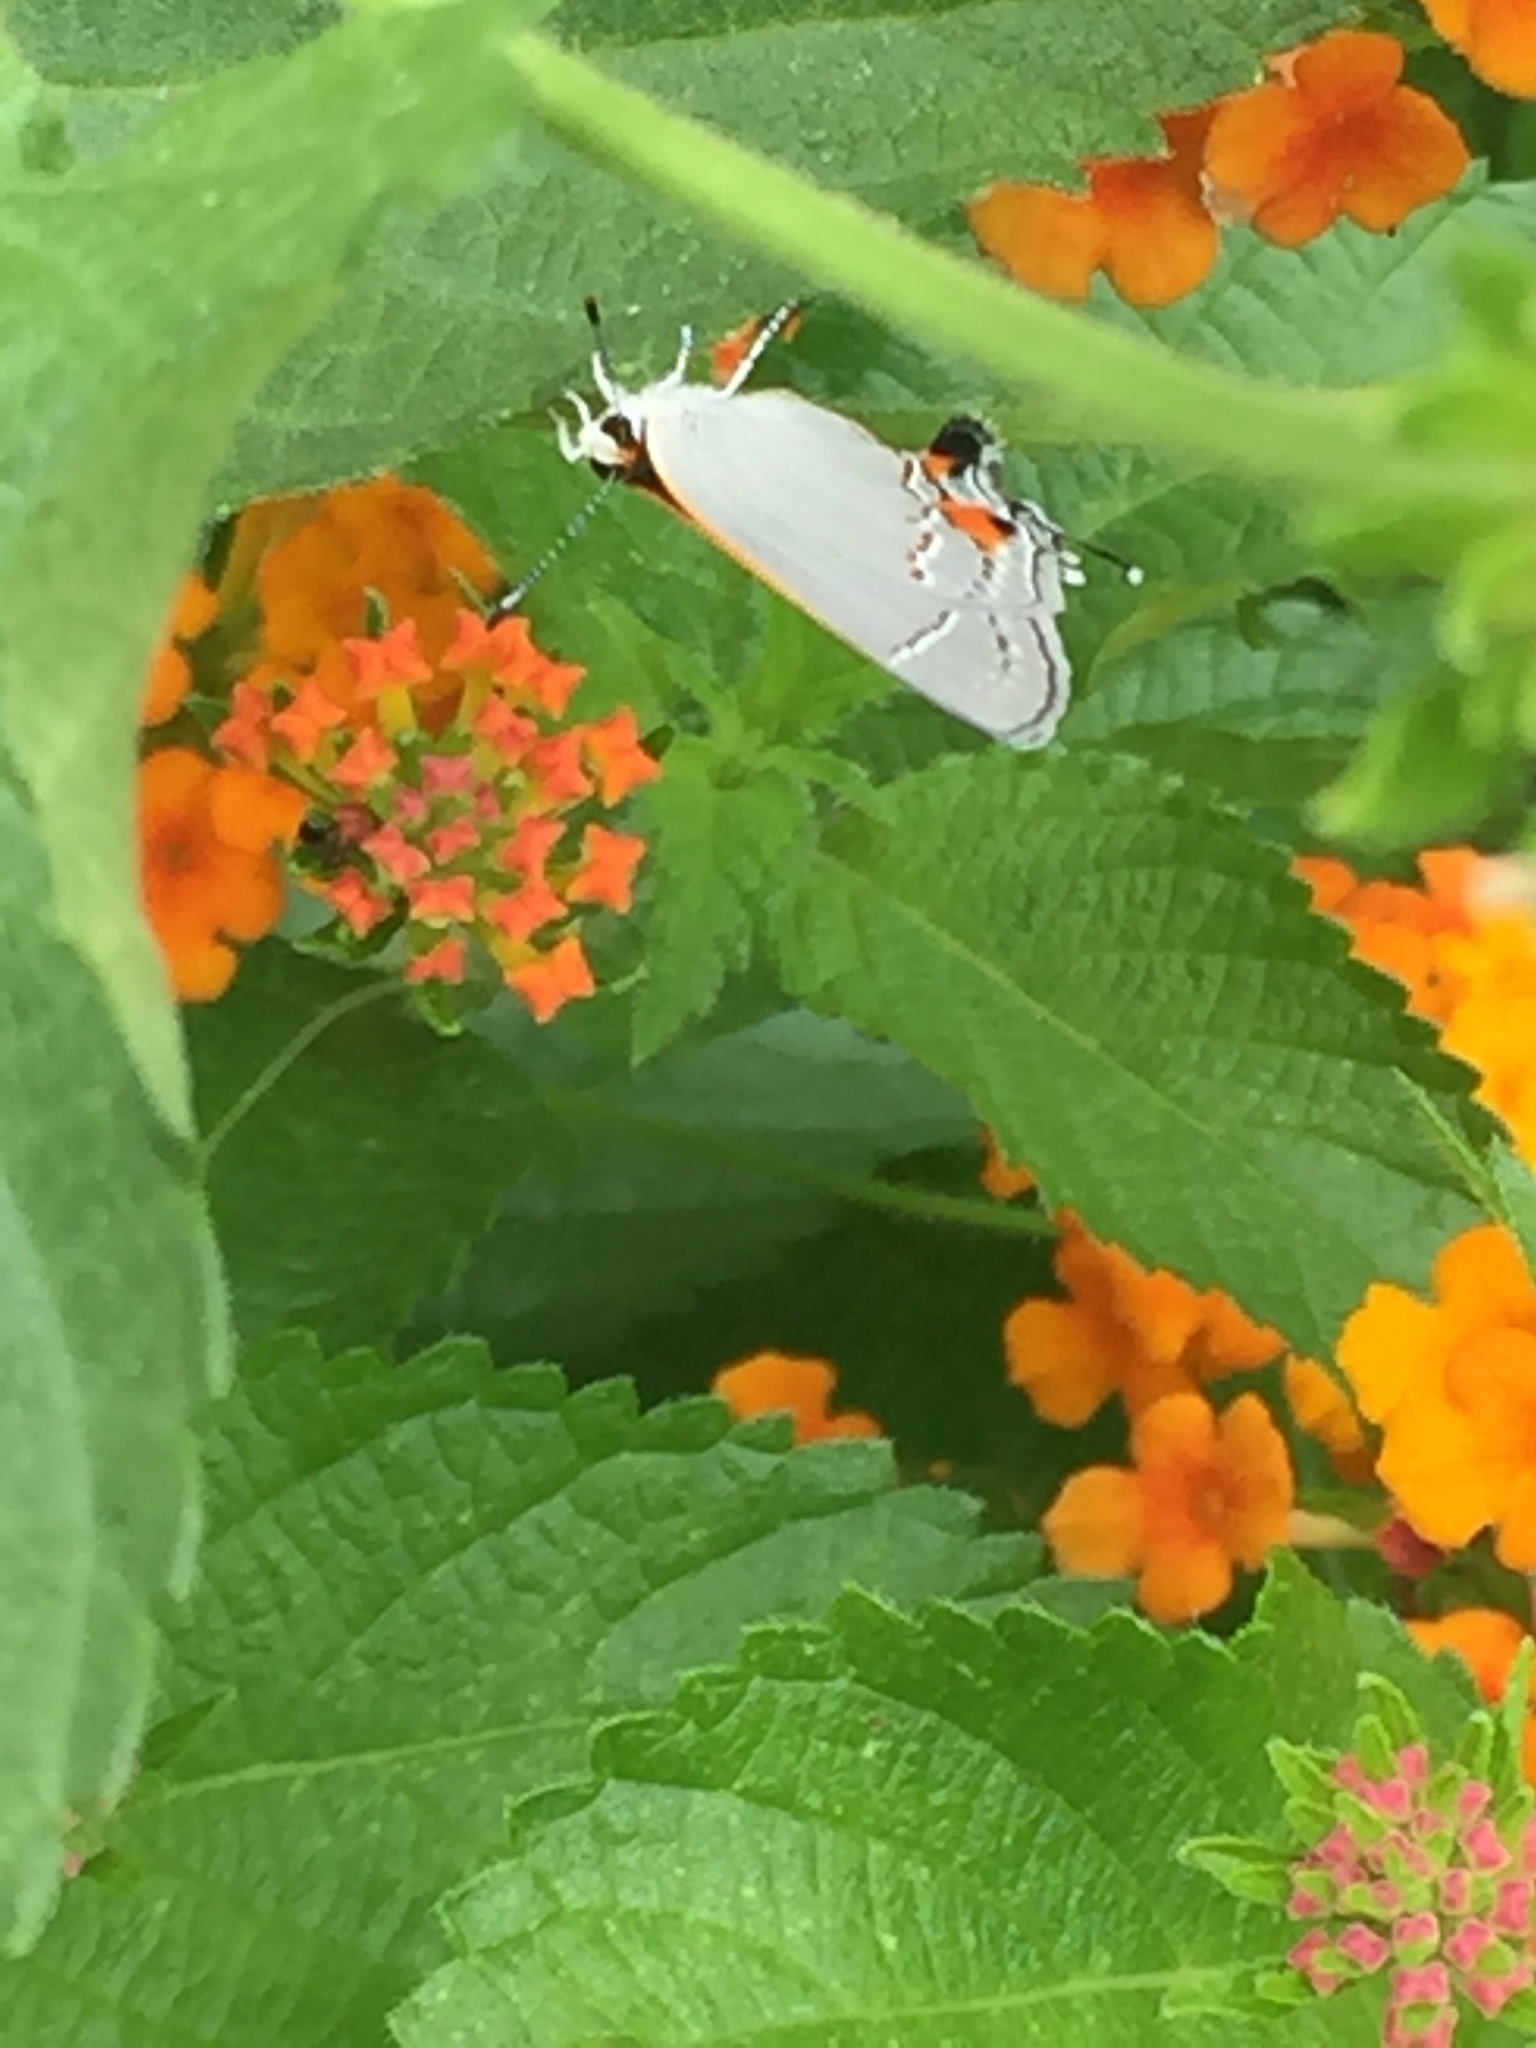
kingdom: Animalia
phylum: Arthropoda
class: Insecta
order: Lepidoptera
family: Lycaenidae
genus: Strymon
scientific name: Strymon melinus
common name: Gray hairstreak
